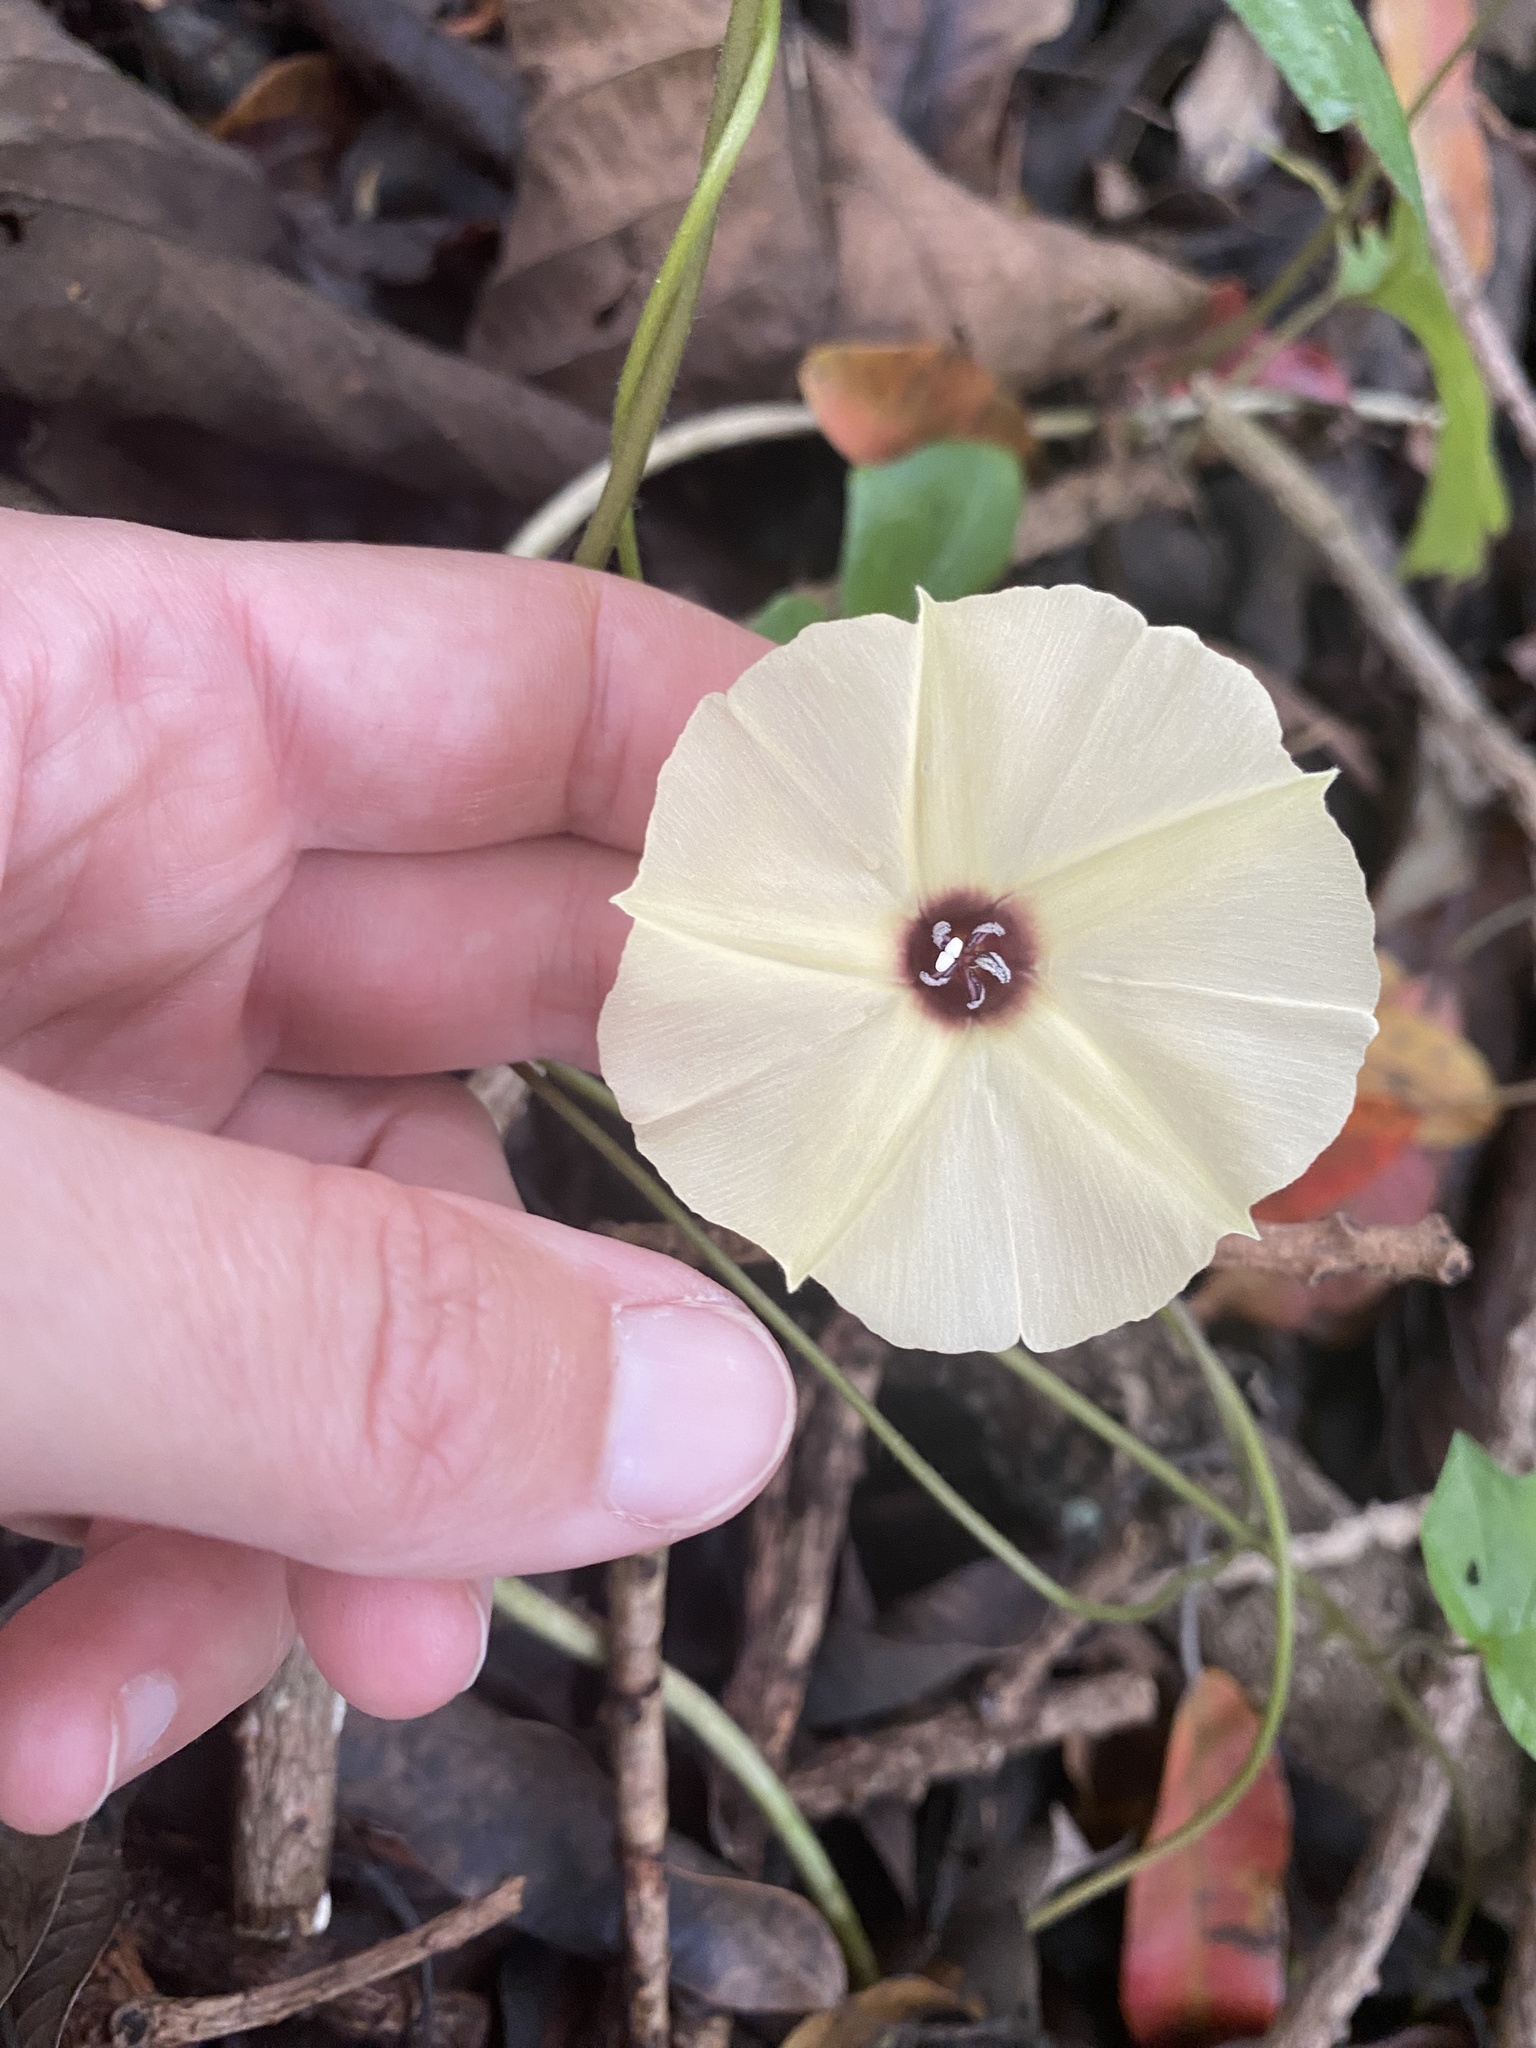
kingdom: Plantae
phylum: Tracheophyta
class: Magnoliopsida
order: Solanales
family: Convolvulaceae
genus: Hewittia
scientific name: Hewittia malabarica
